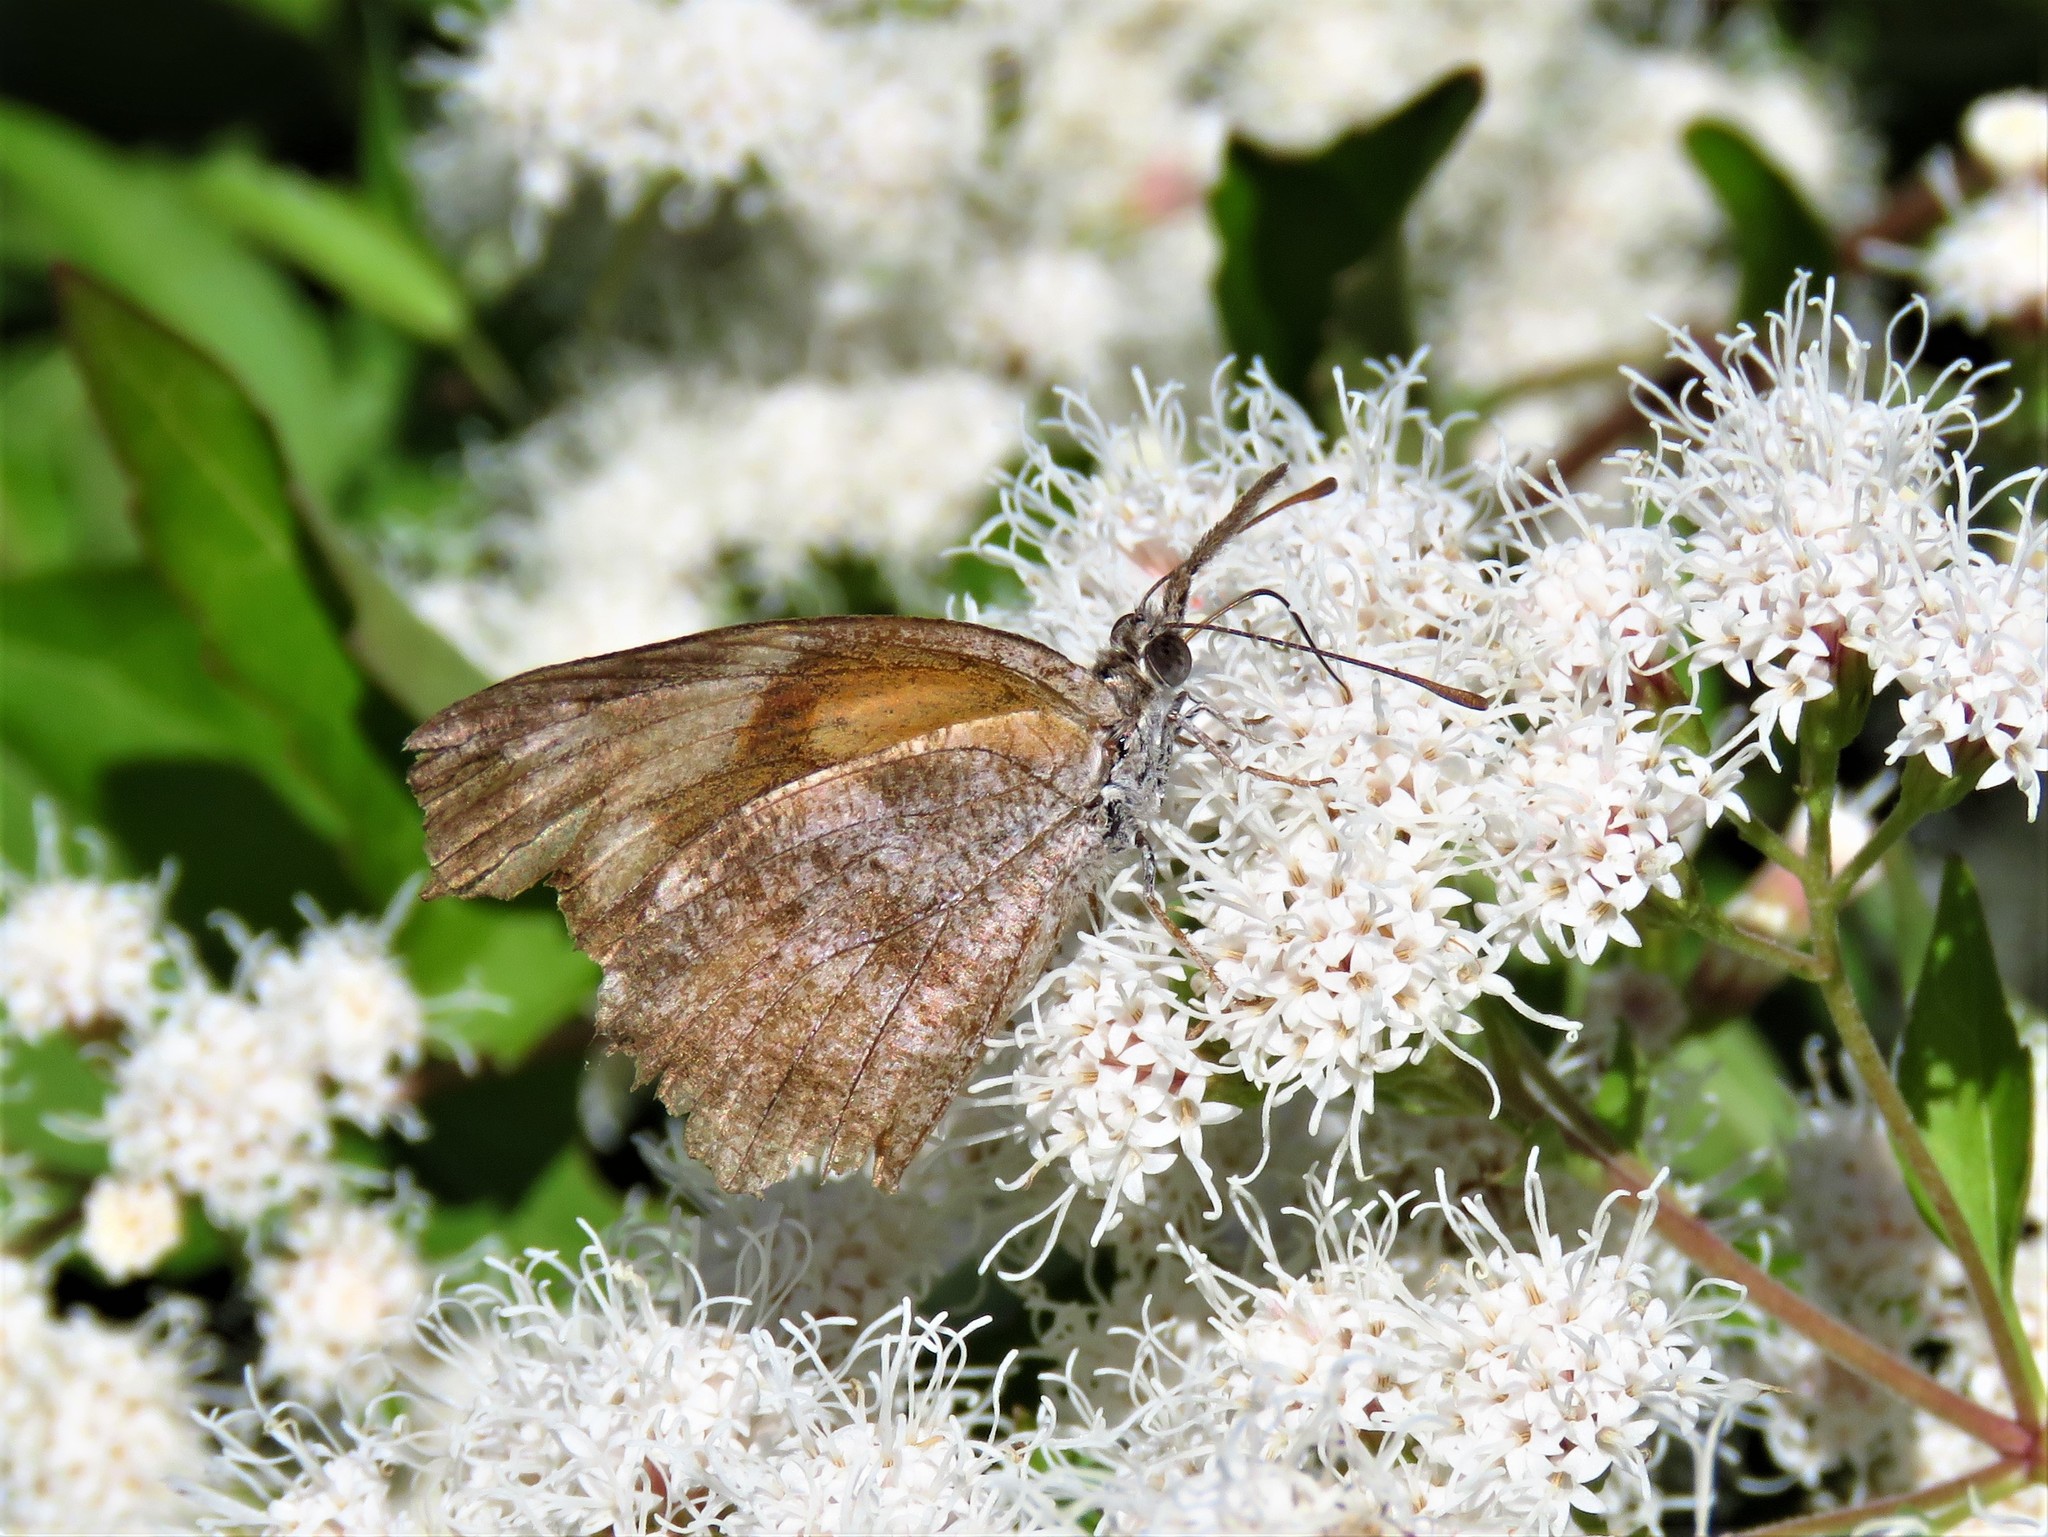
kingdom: Animalia
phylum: Arthropoda
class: Insecta
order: Lepidoptera
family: Nymphalidae
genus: Libytheana
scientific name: Libytheana carinenta
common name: American snout
